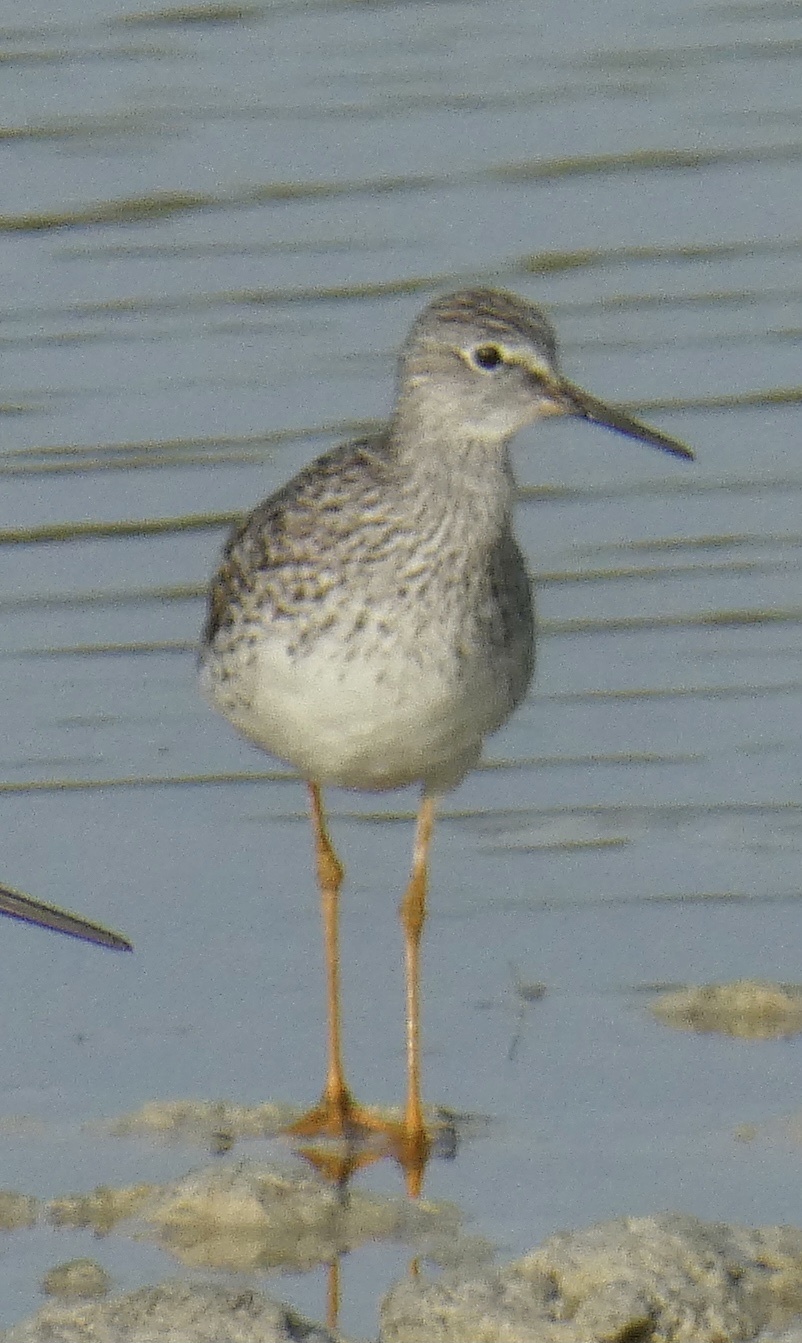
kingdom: Animalia
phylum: Chordata
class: Aves
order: Charadriiformes
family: Scolopacidae
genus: Tringa
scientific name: Tringa flavipes
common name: Lesser yellowlegs
